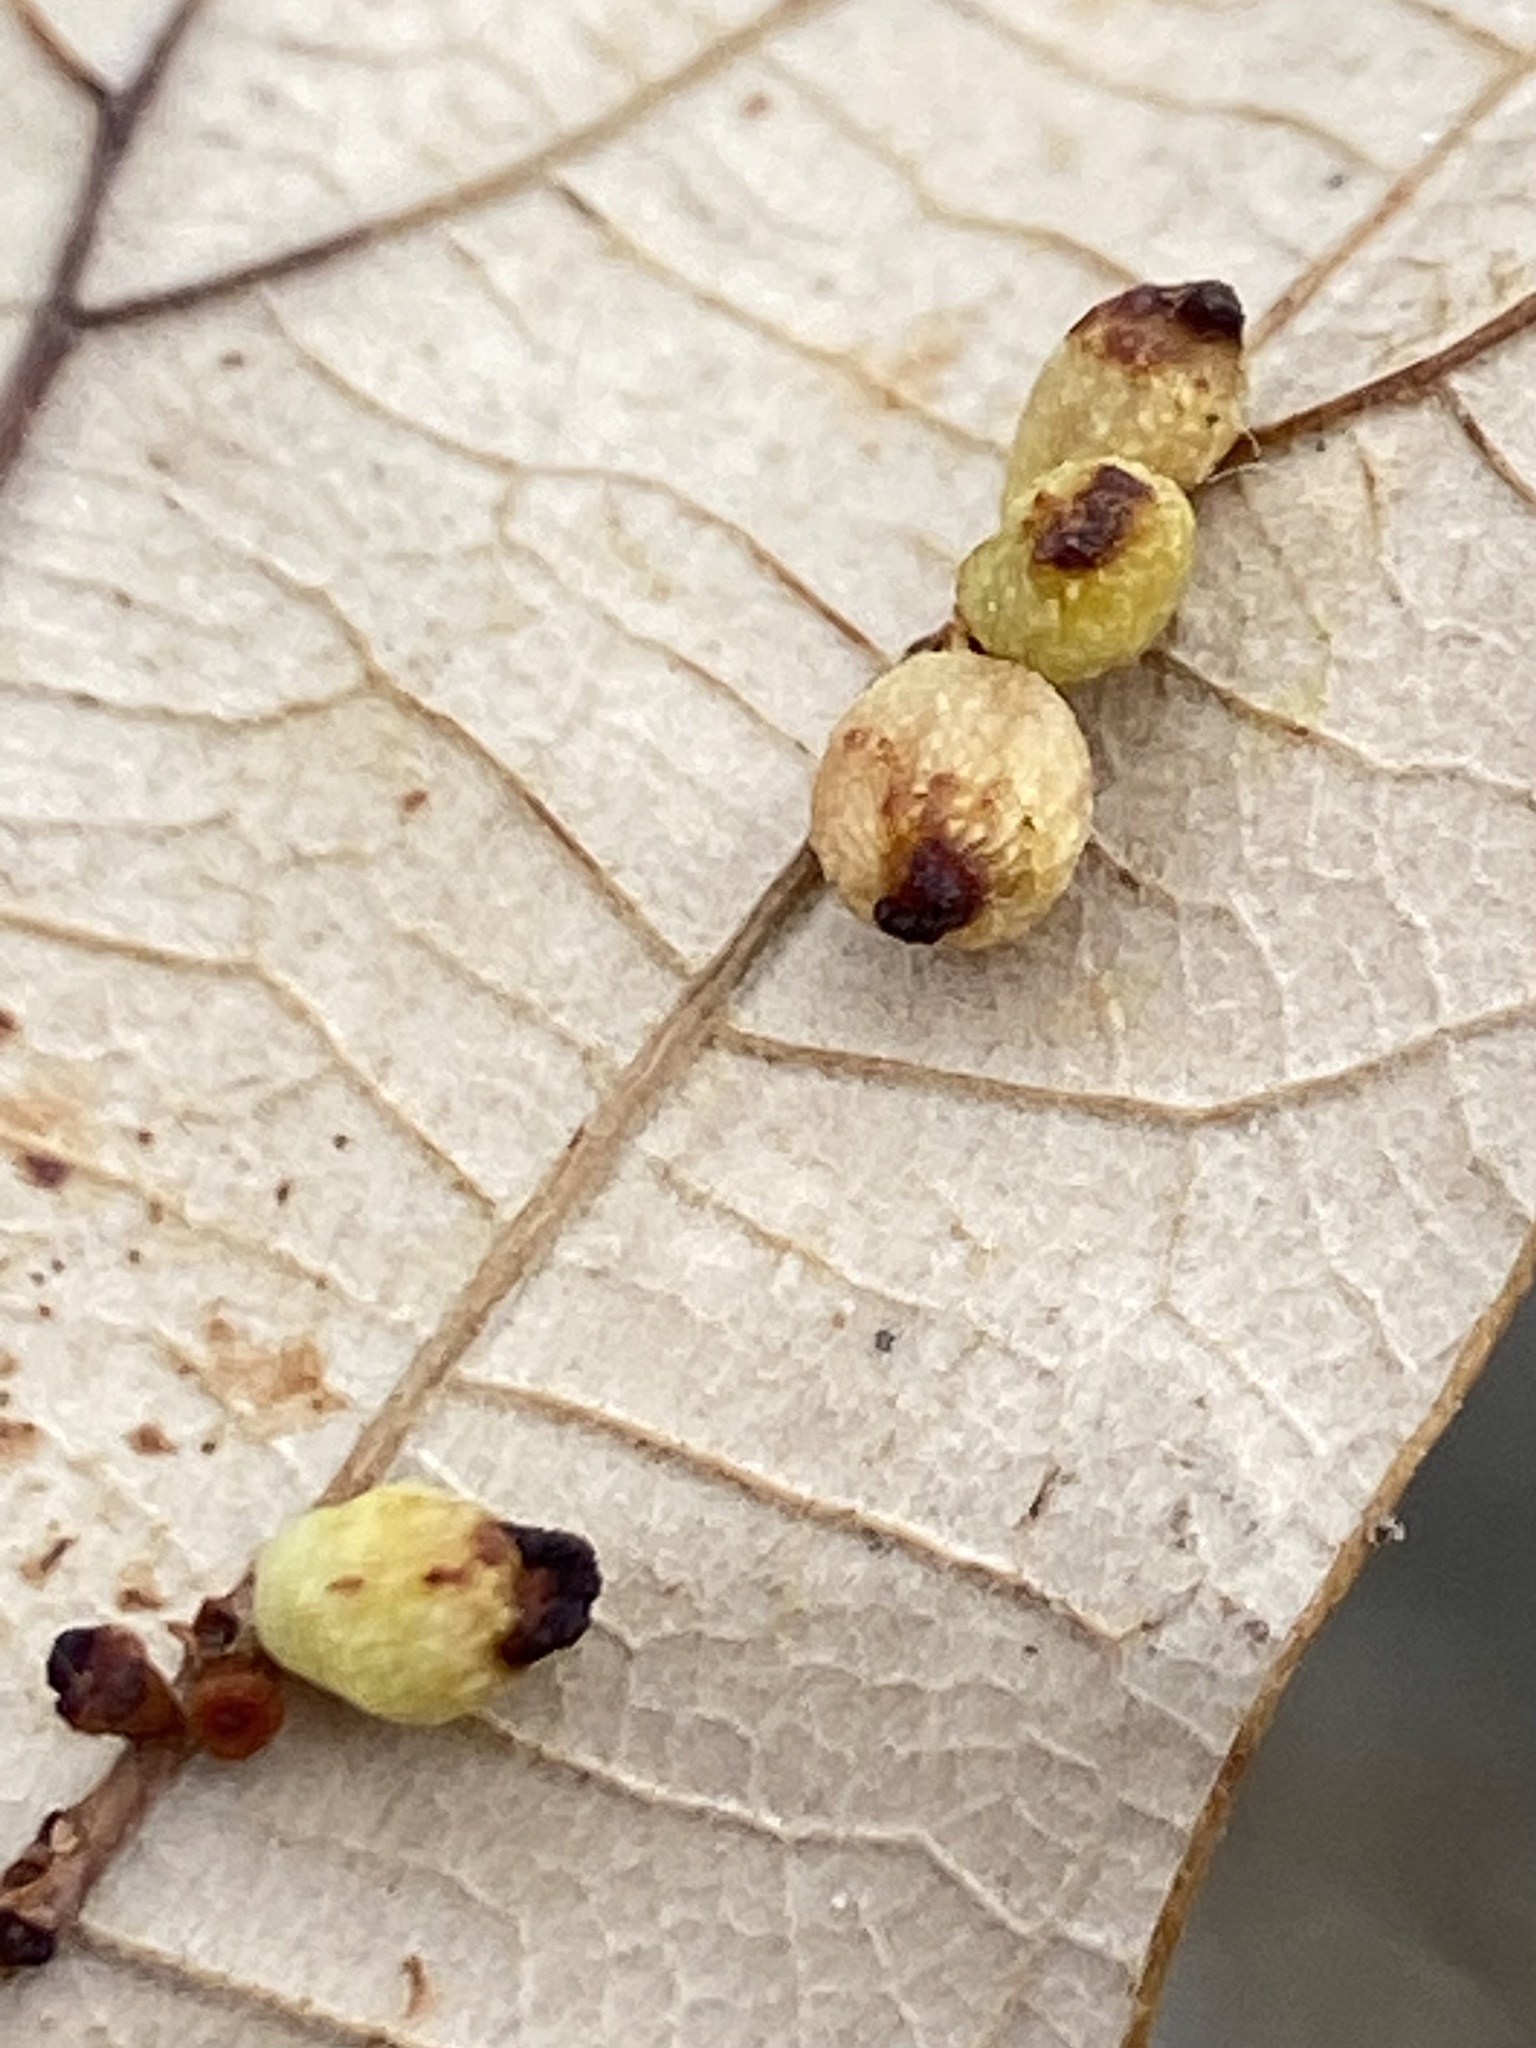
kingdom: Animalia
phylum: Arthropoda
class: Insecta
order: Hymenoptera
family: Cynipidae
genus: Andricus
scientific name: Andricus
